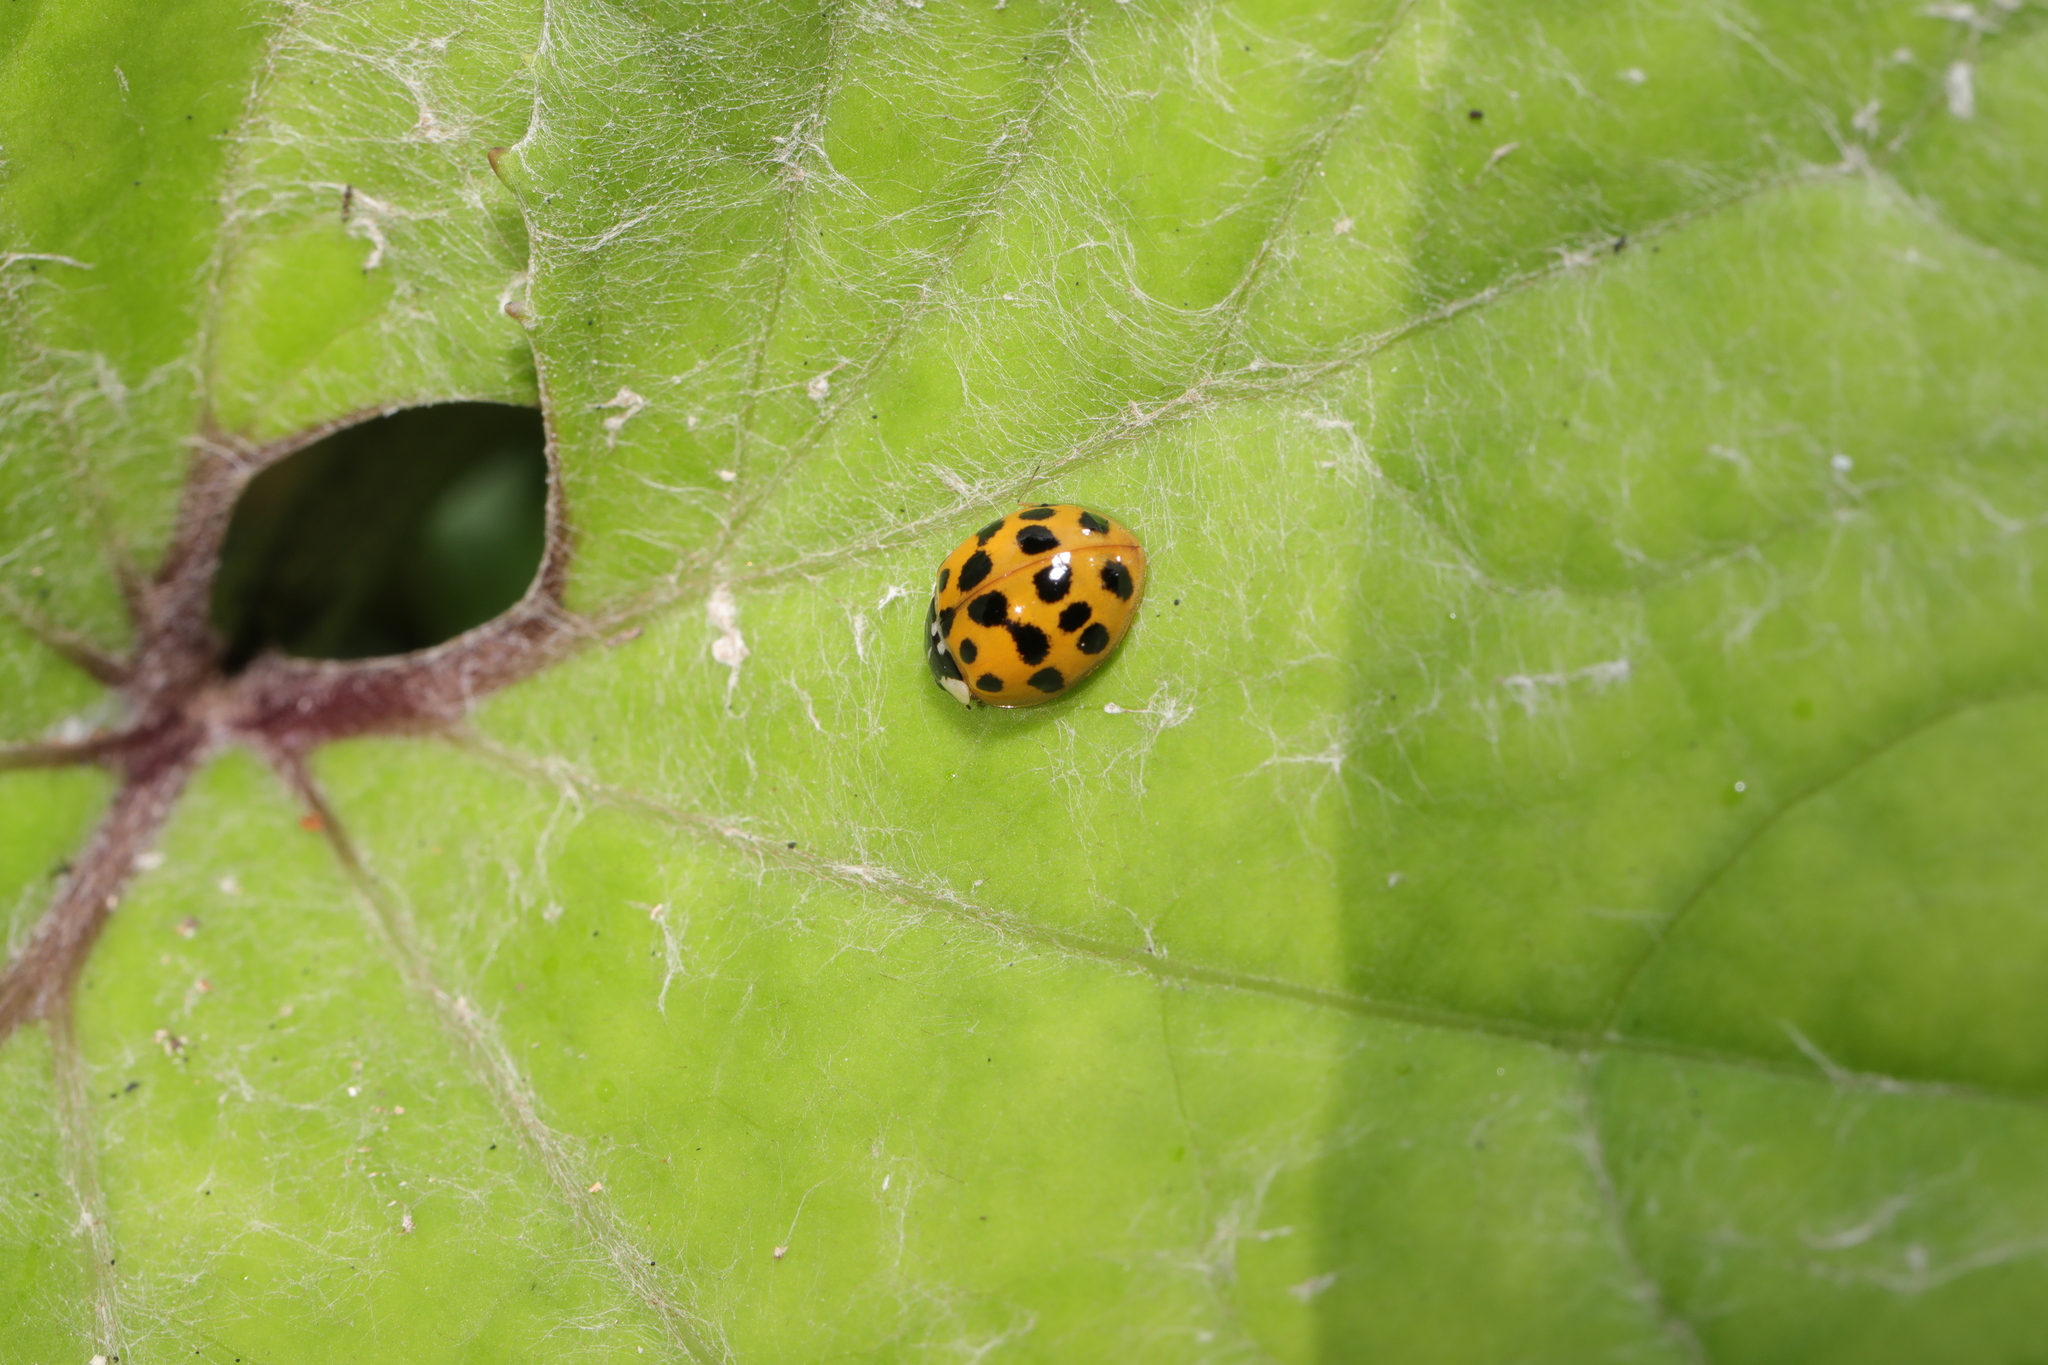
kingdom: Animalia
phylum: Arthropoda
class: Insecta
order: Coleoptera
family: Coccinellidae
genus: Harmonia
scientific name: Harmonia axyridis
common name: Harlequin ladybird
